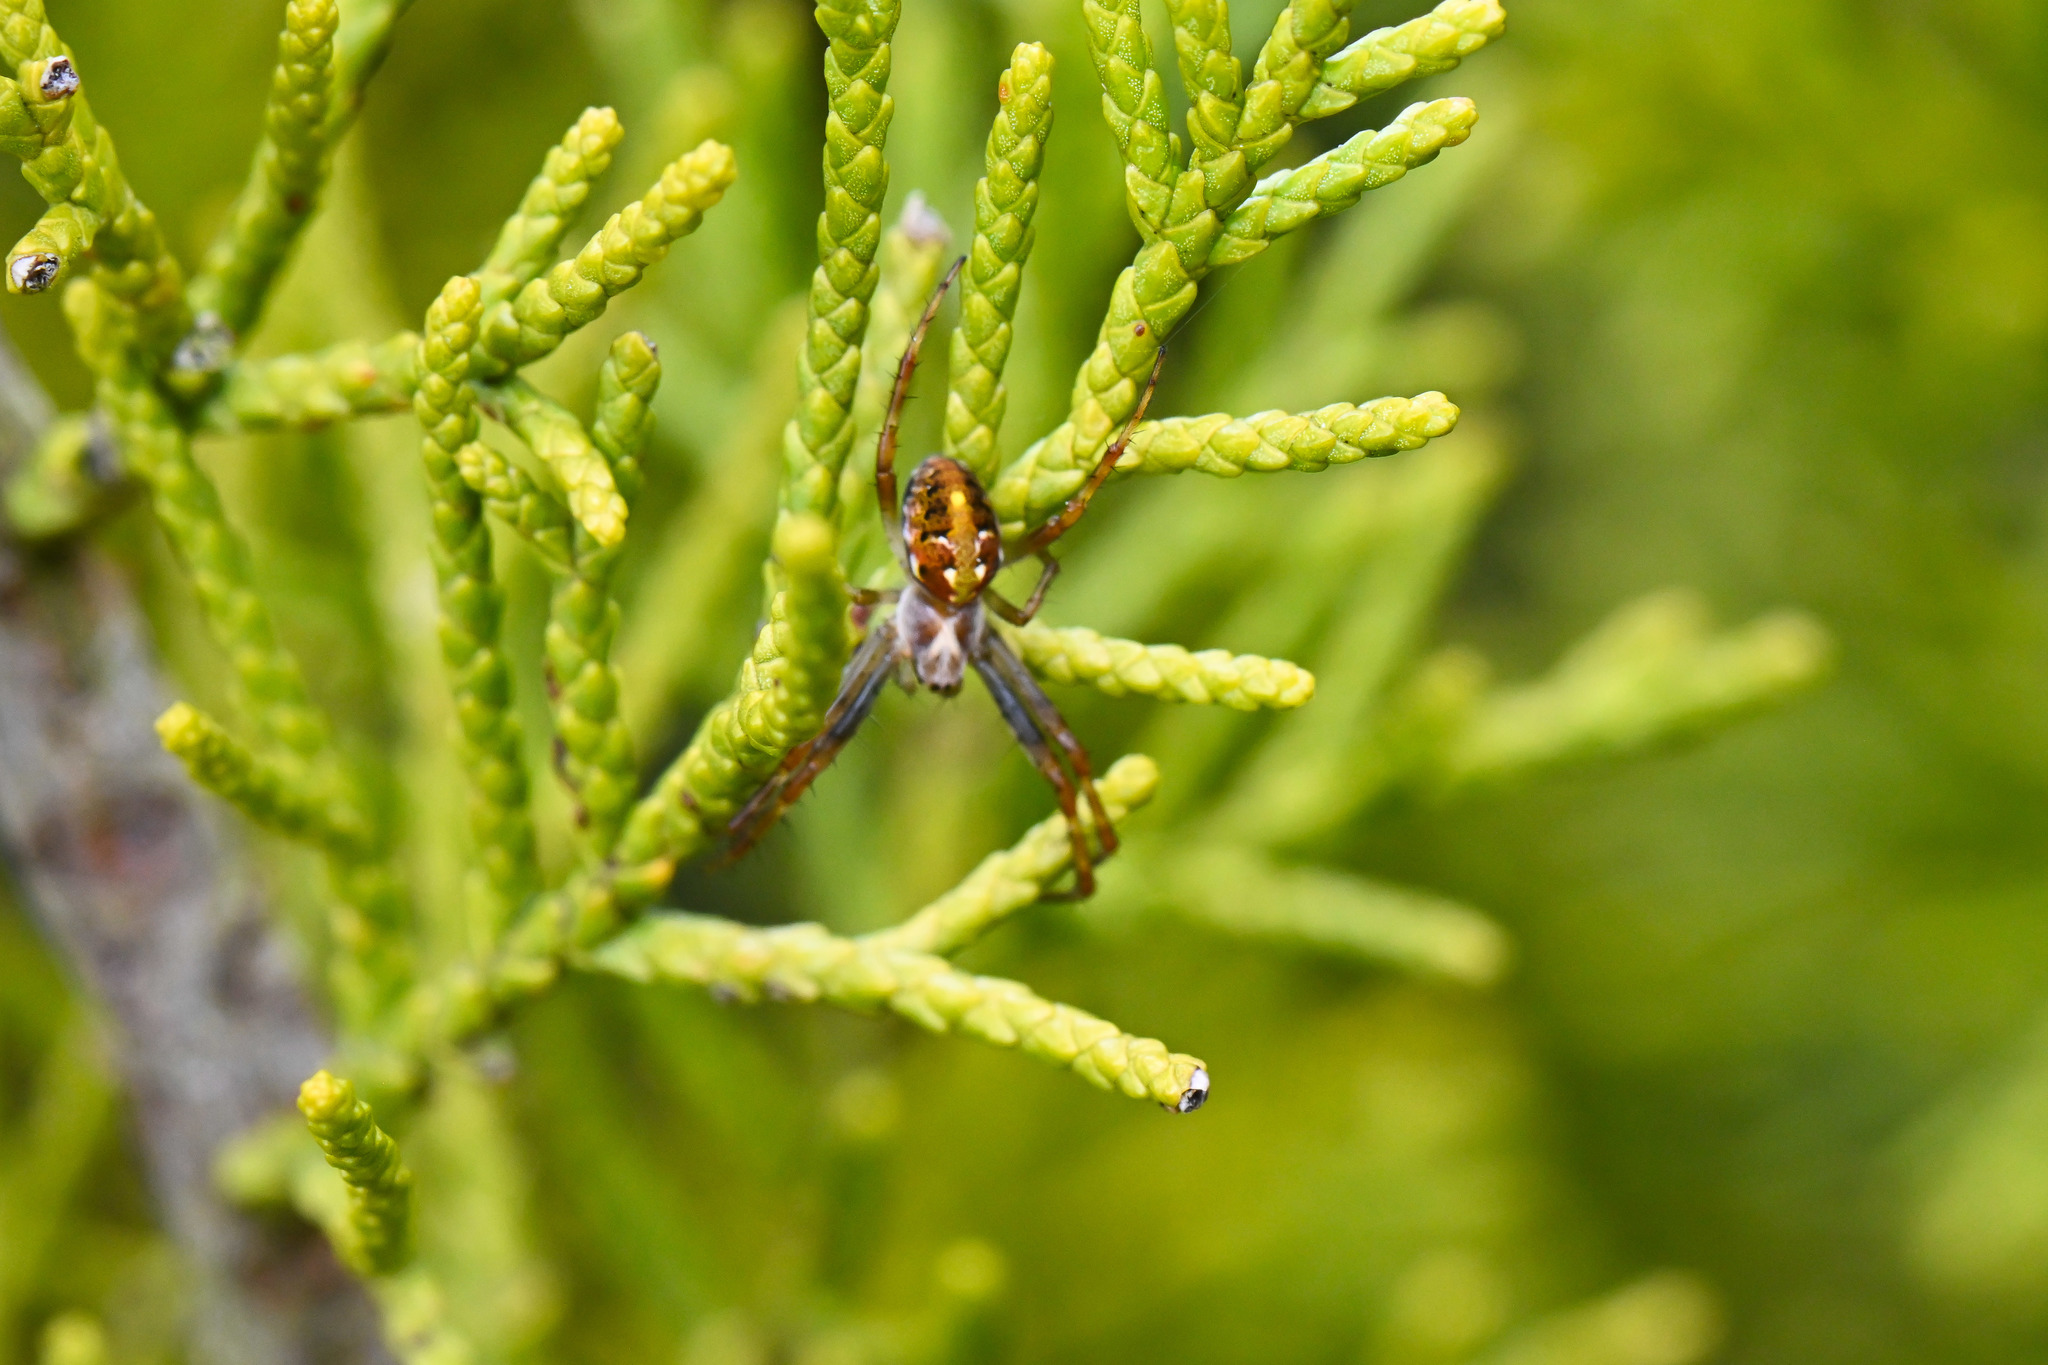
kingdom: Animalia
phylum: Arthropoda
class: Arachnida
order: Araneae
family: Araneidae
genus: Novaranea
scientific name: Novaranea queribunda
